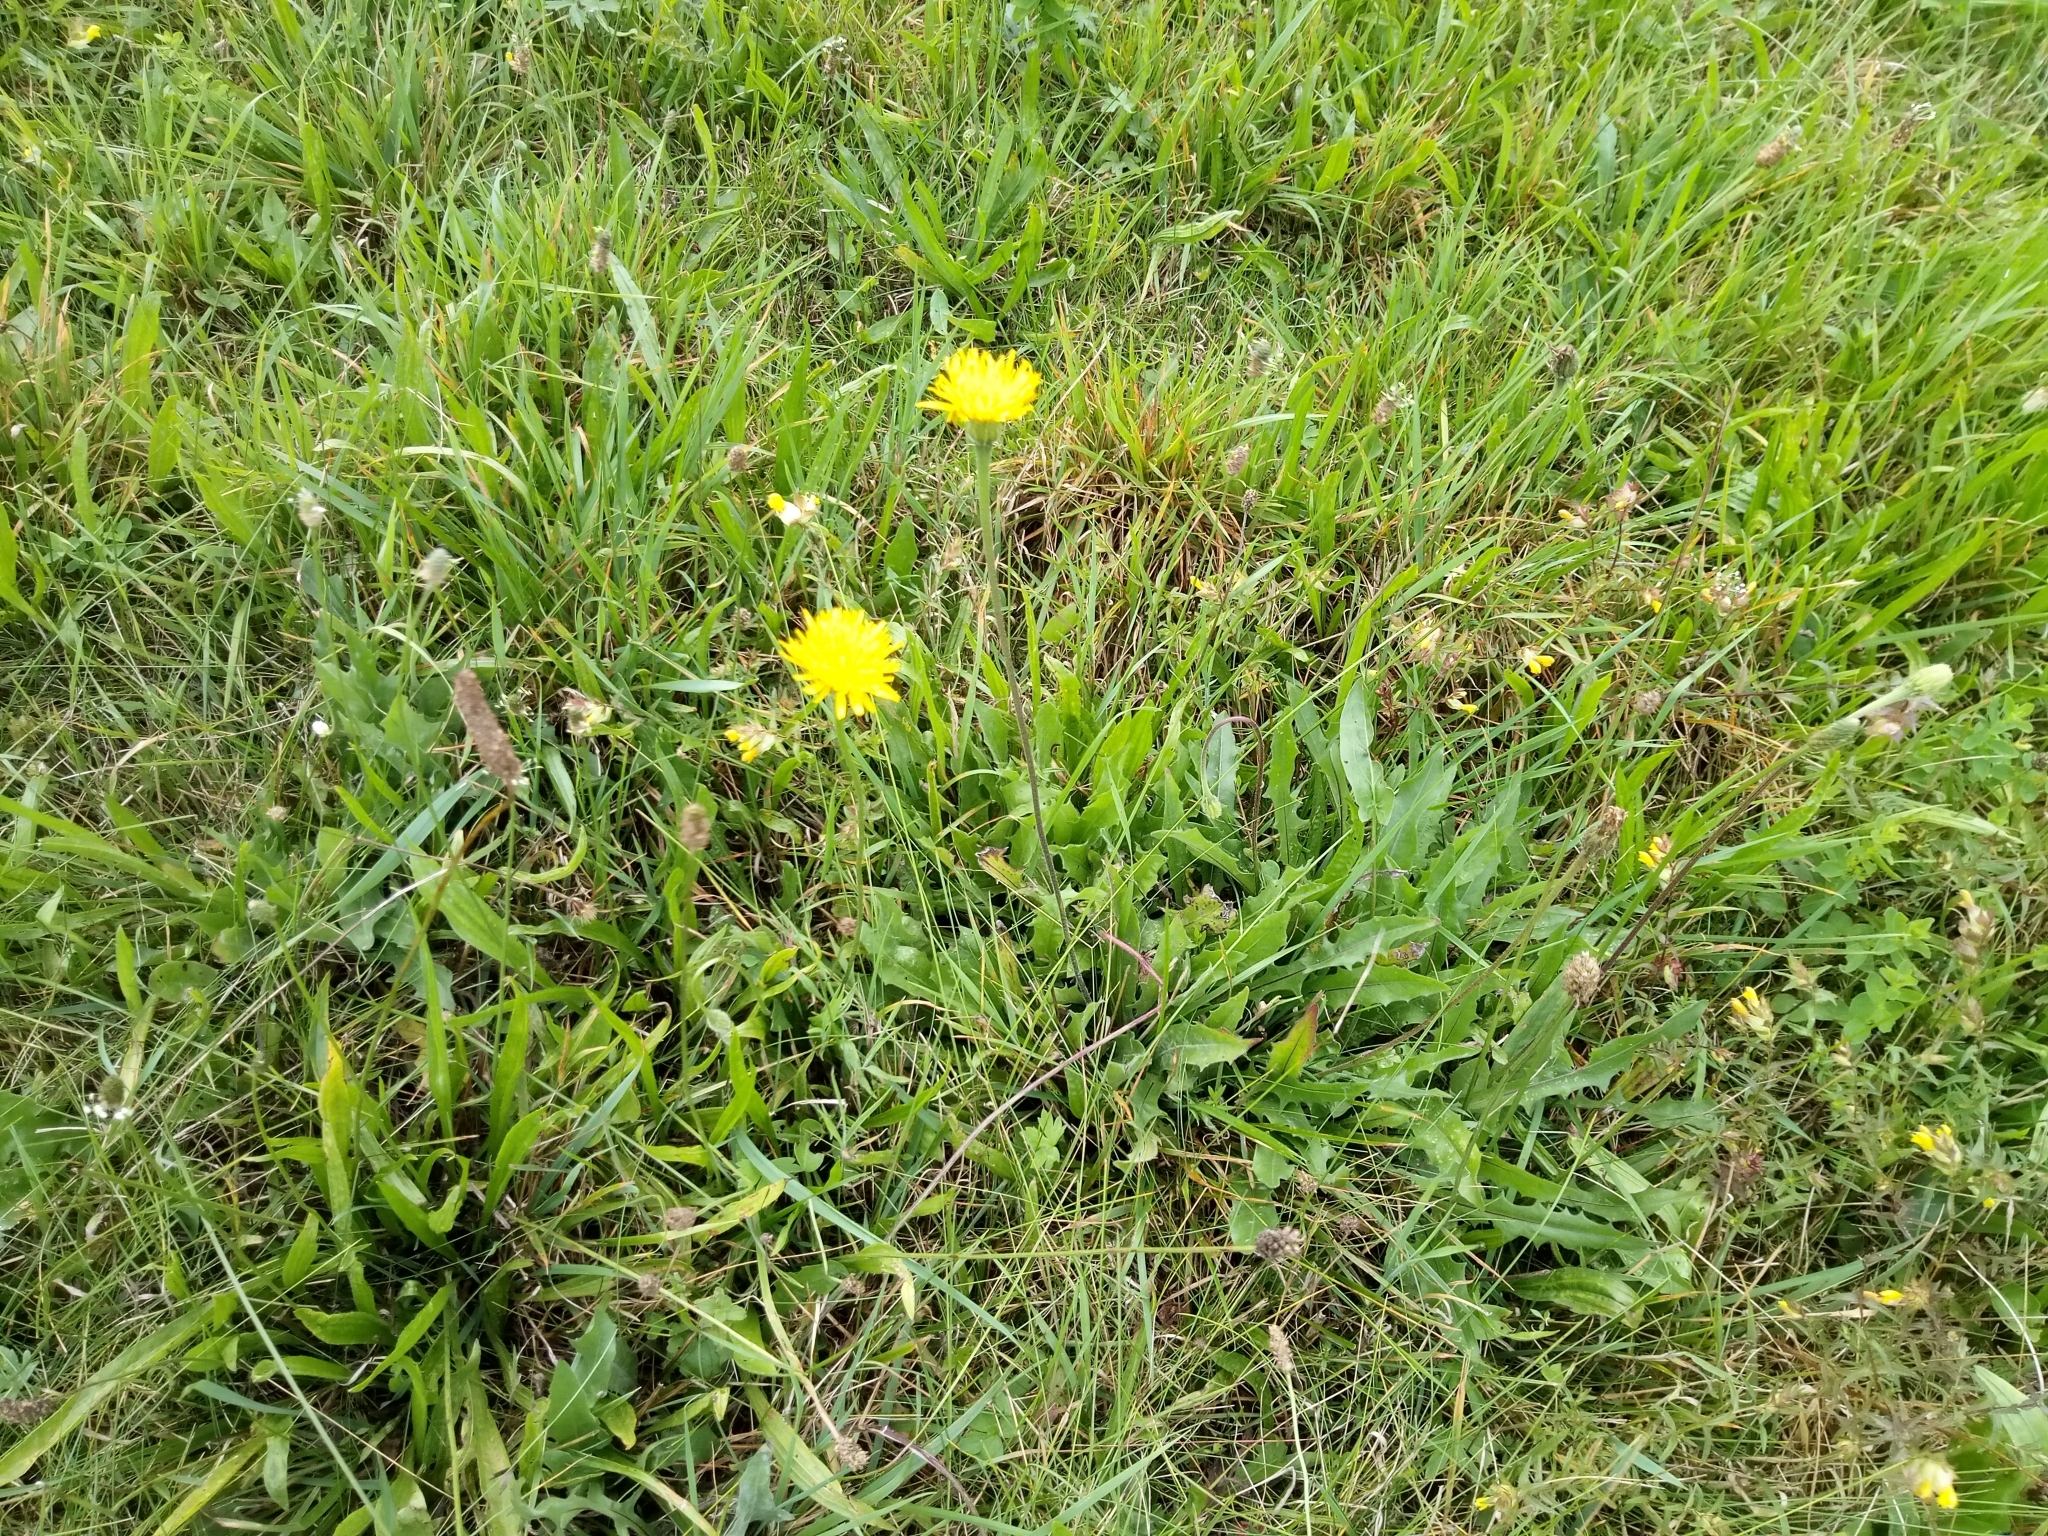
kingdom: Plantae
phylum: Tracheophyta
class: Magnoliopsida
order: Asterales
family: Asteraceae
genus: Leontodon
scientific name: Leontodon hispidus
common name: Rough hawkbit
